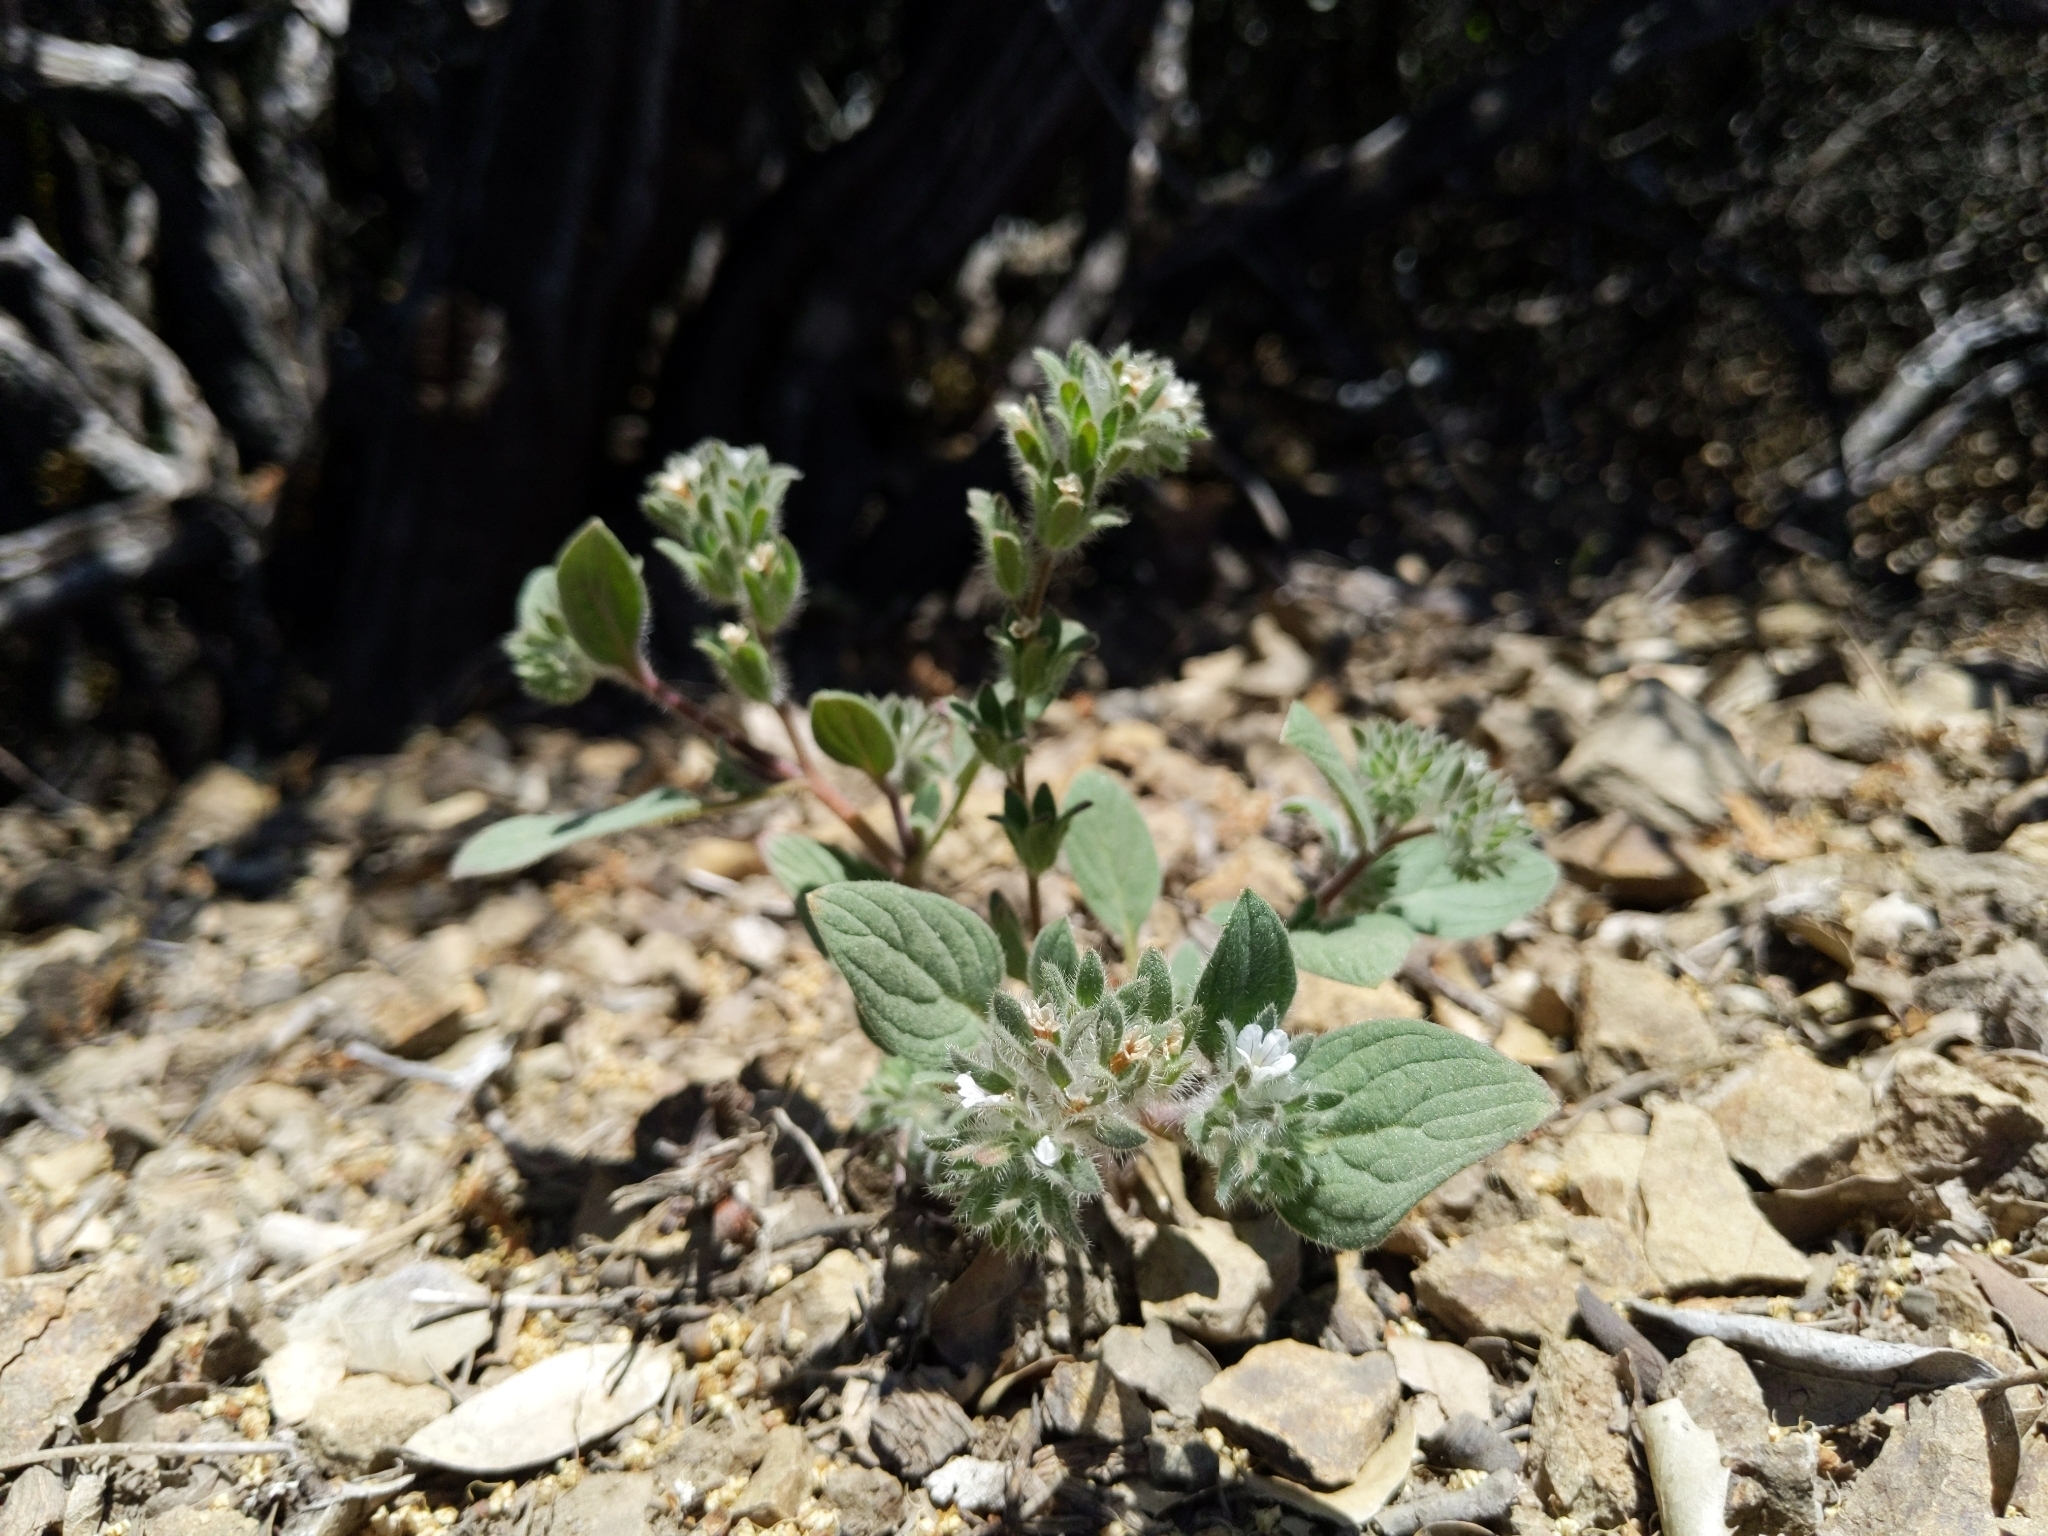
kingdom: Plantae
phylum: Tracheophyta
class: Magnoliopsida
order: Boraginales
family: Hydrophyllaceae
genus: Phacelia
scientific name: Phacelia phacelioides
